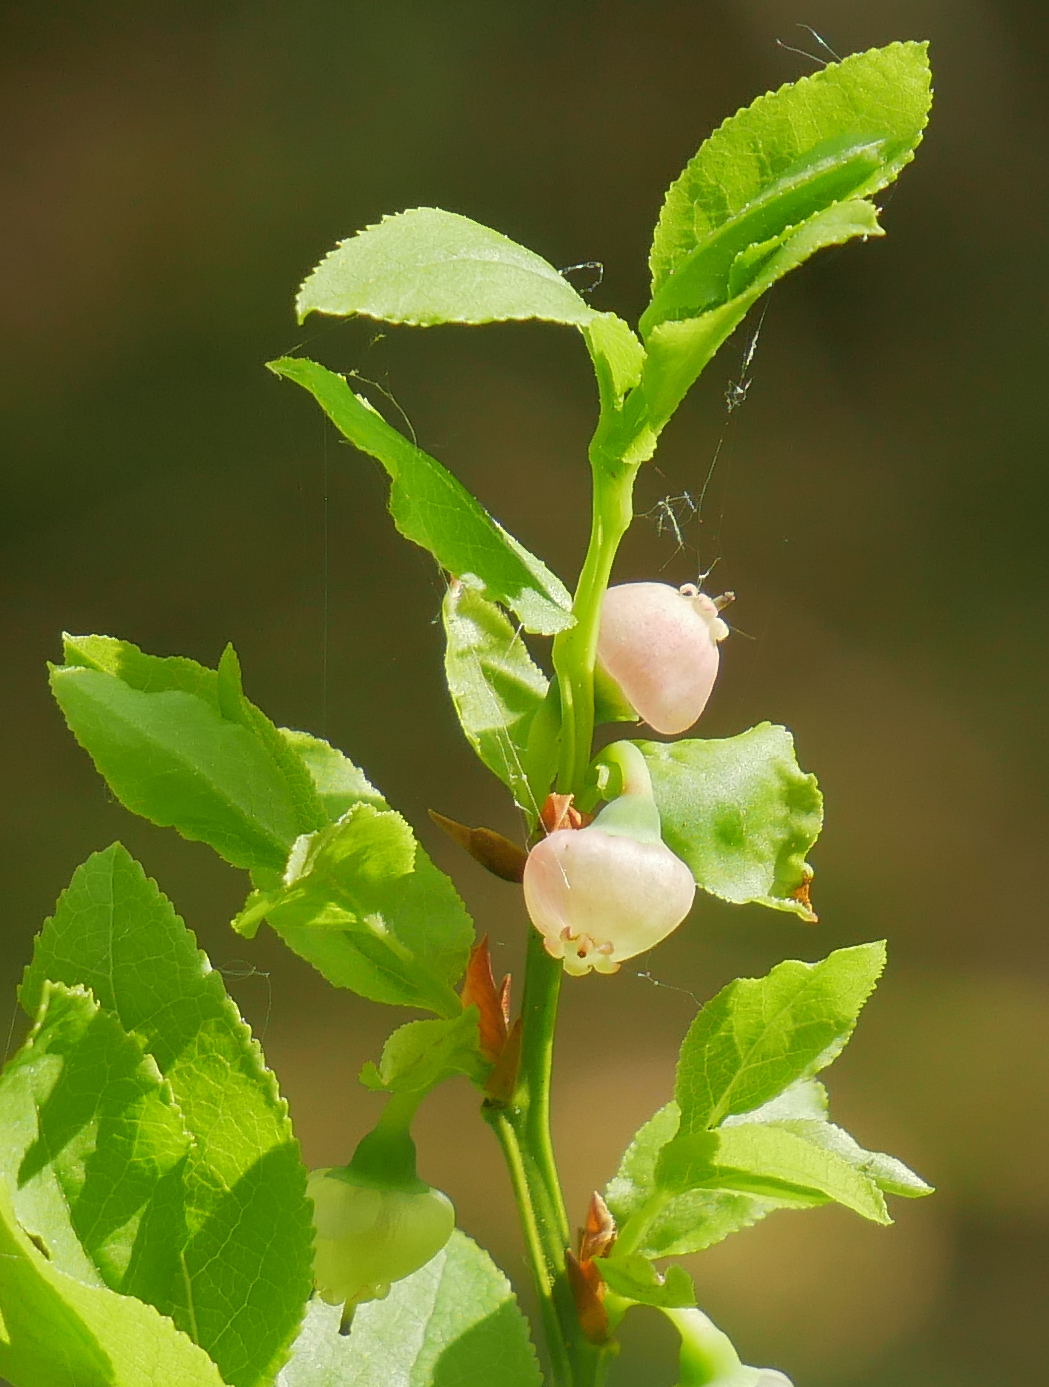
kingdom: Plantae
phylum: Tracheophyta
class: Magnoliopsida
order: Ericales
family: Ericaceae
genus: Vaccinium
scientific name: Vaccinium myrtillus
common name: Bilberry
